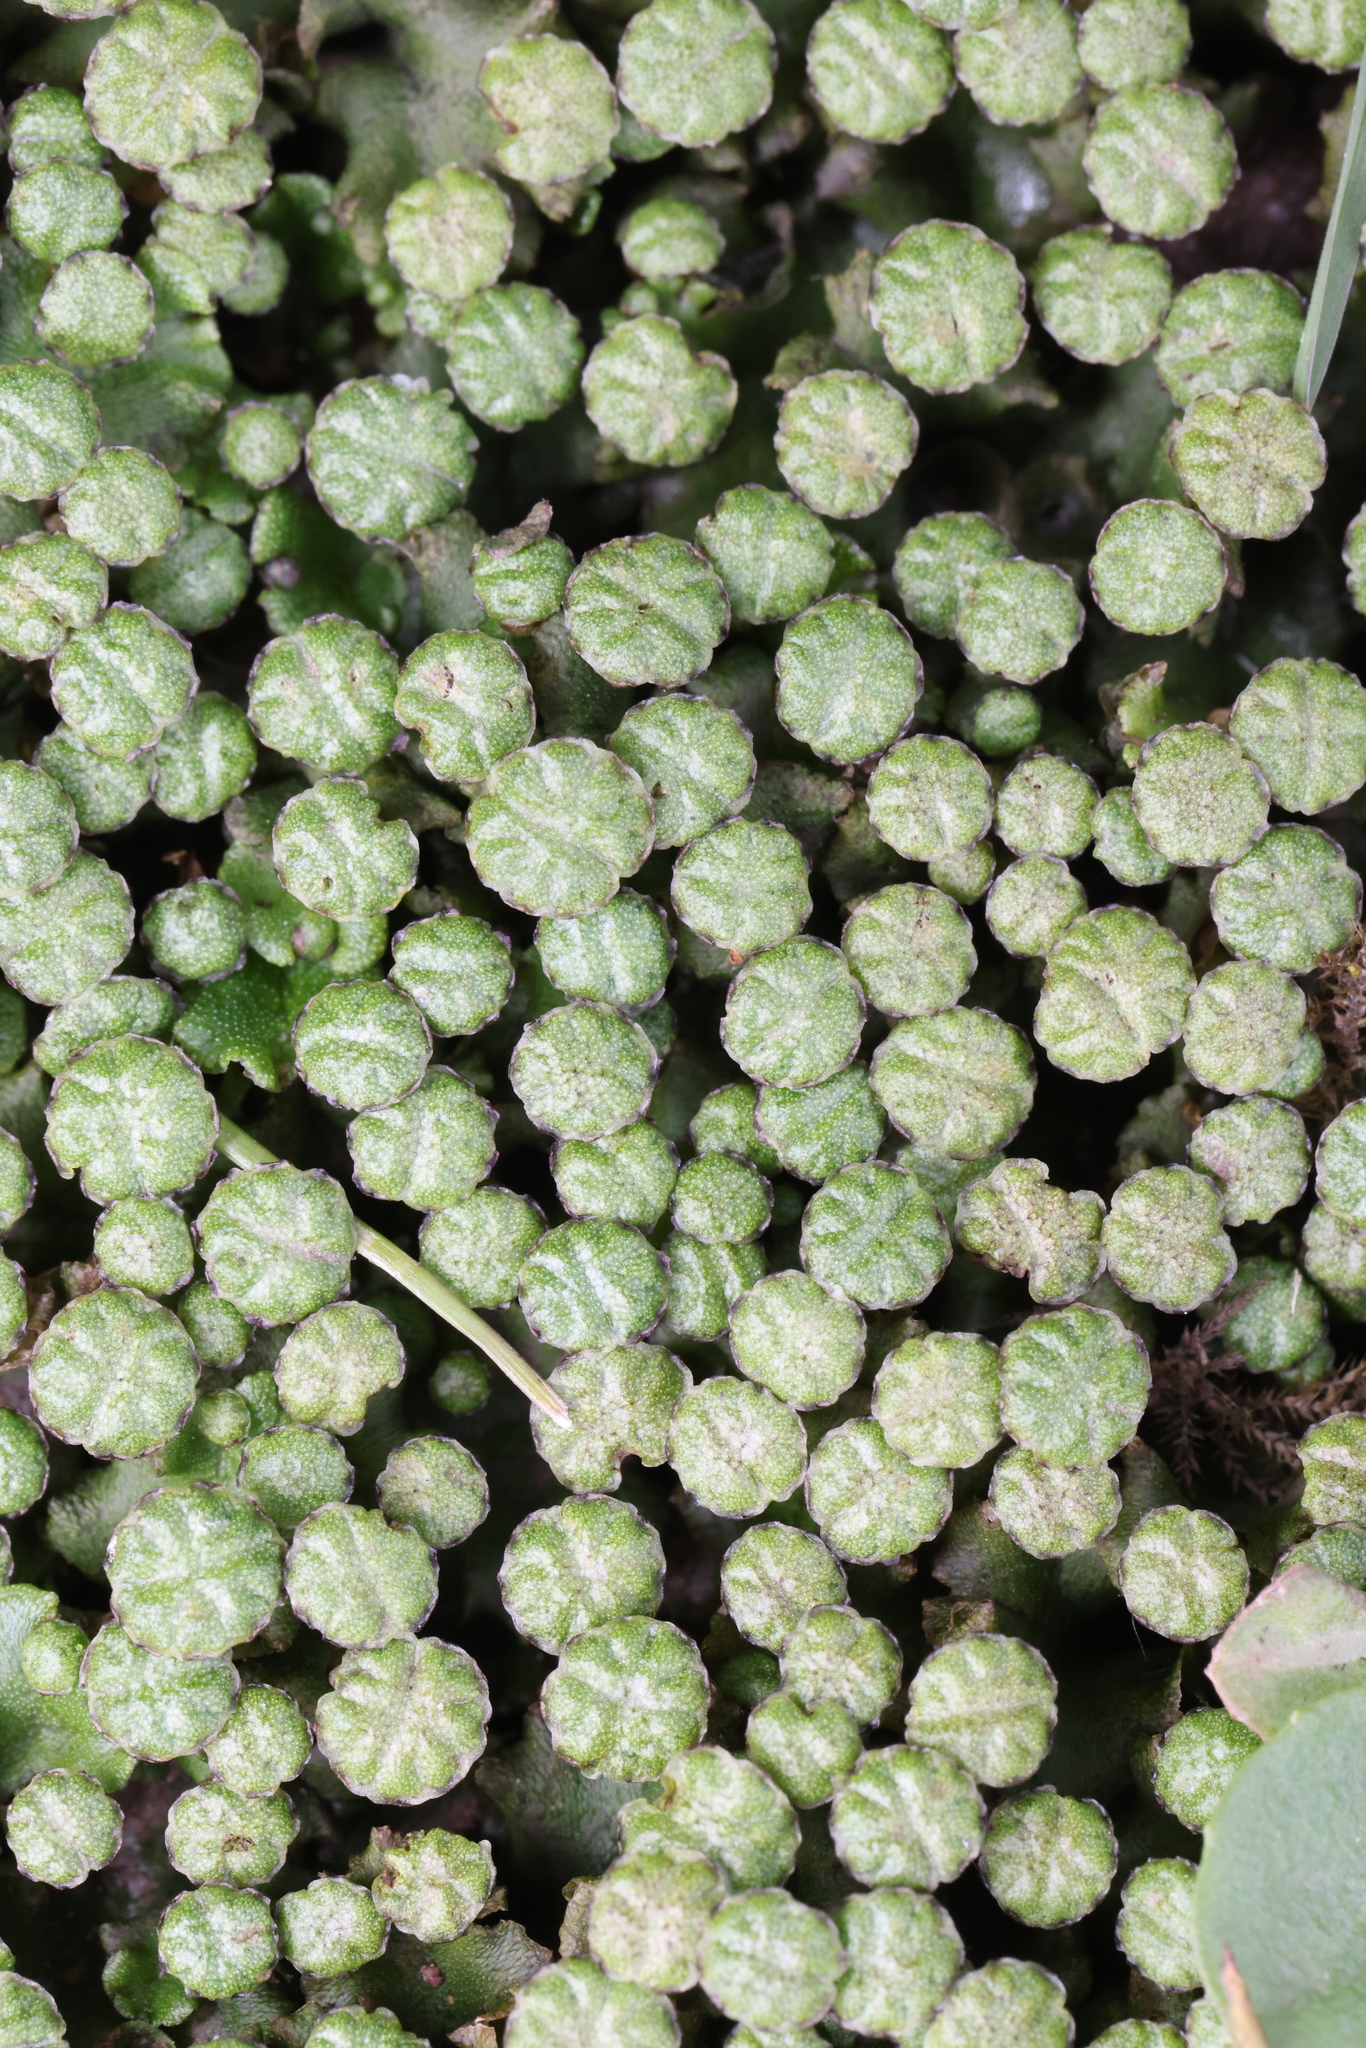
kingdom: Plantae
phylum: Marchantiophyta
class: Marchantiopsida
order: Marchantiales
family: Marchantiaceae
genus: Marchantia
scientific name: Marchantia polymorpha
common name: Common liverwort
